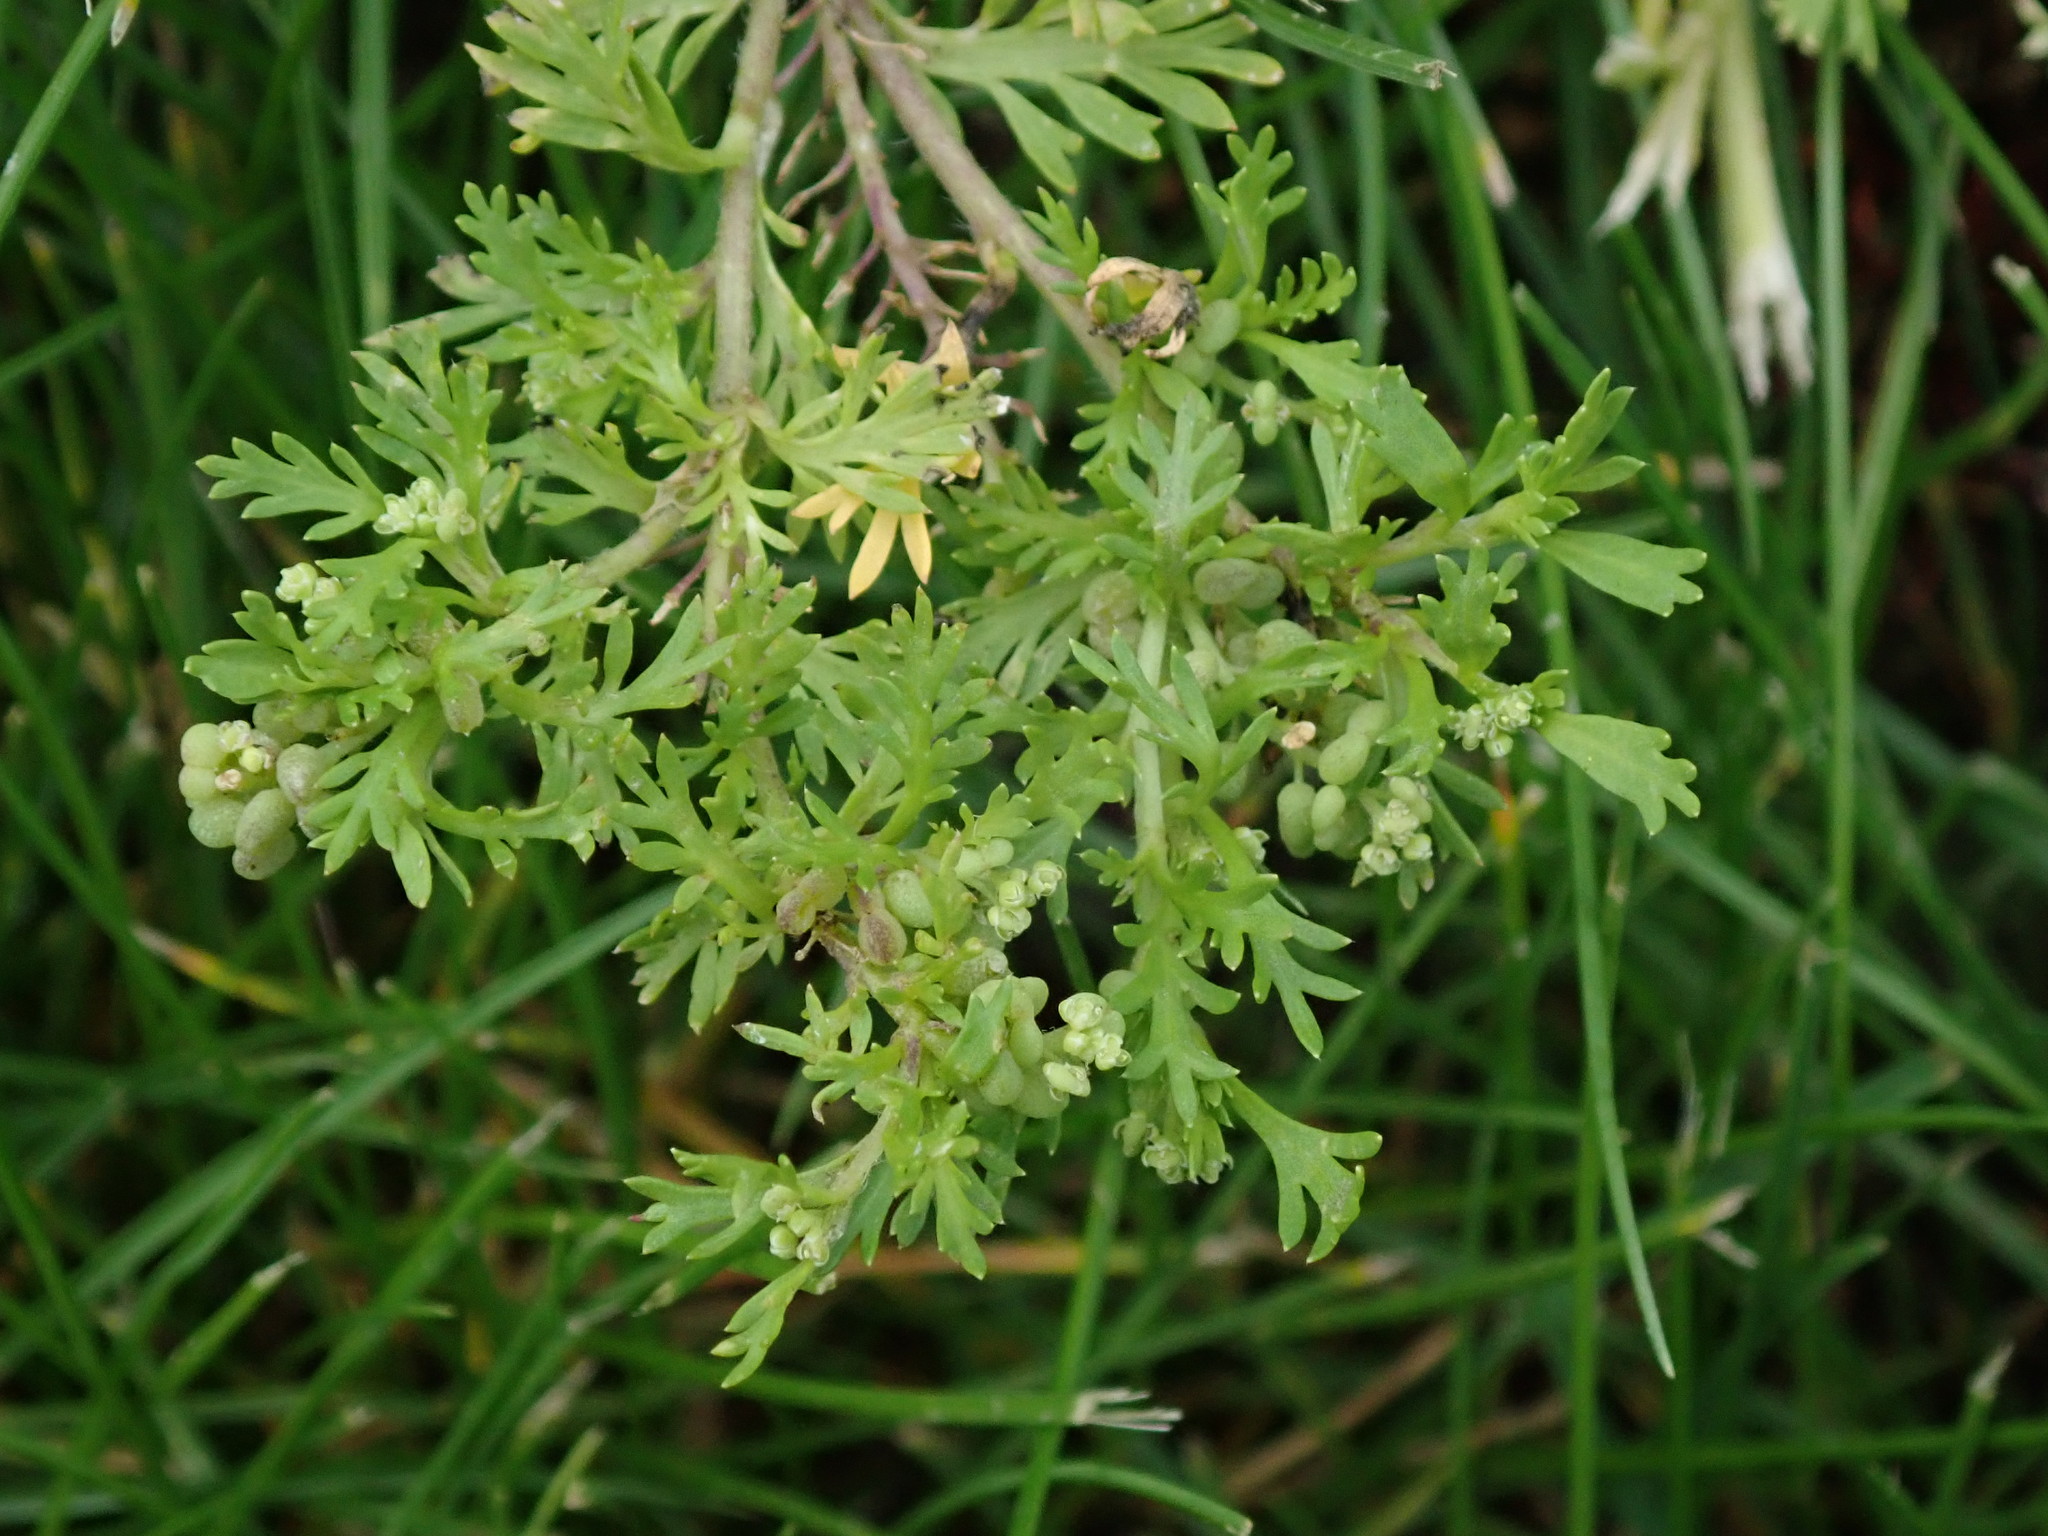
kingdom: Plantae
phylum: Tracheophyta
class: Magnoliopsida
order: Brassicales
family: Brassicaceae
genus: Lepidium
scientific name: Lepidium didymum
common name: Lesser swinecress
